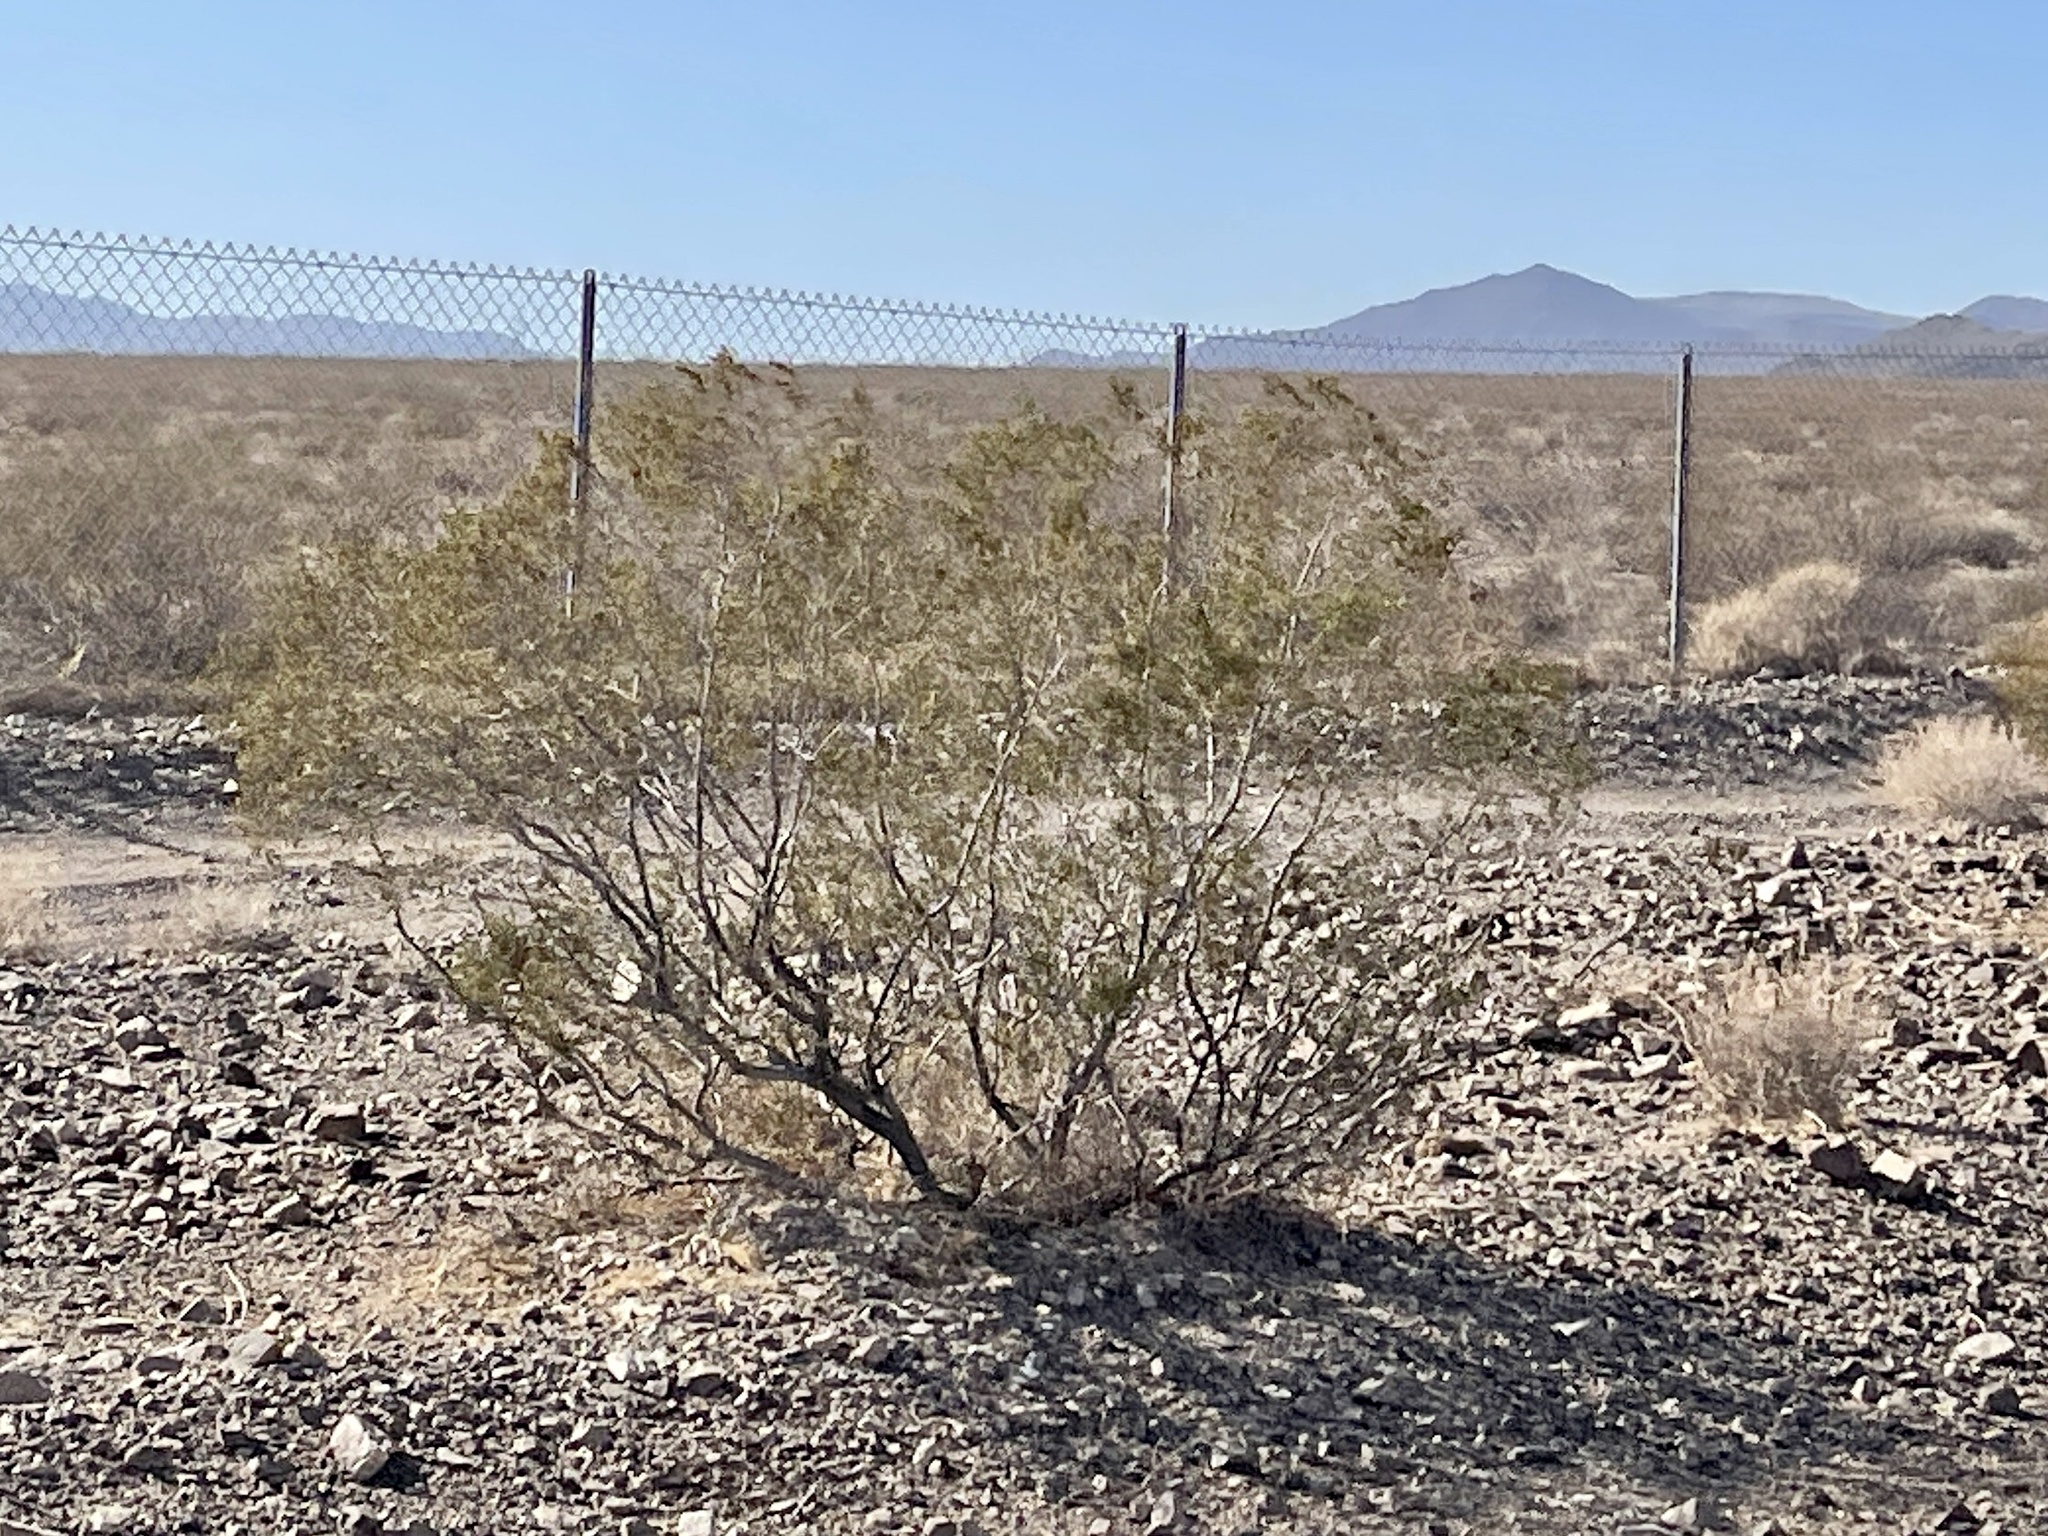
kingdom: Plantae
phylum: Tracheophyta
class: Magnoliopsida
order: Zygophyllales
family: Zygophyllaceae
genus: Larrea
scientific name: Larrea tridentata
